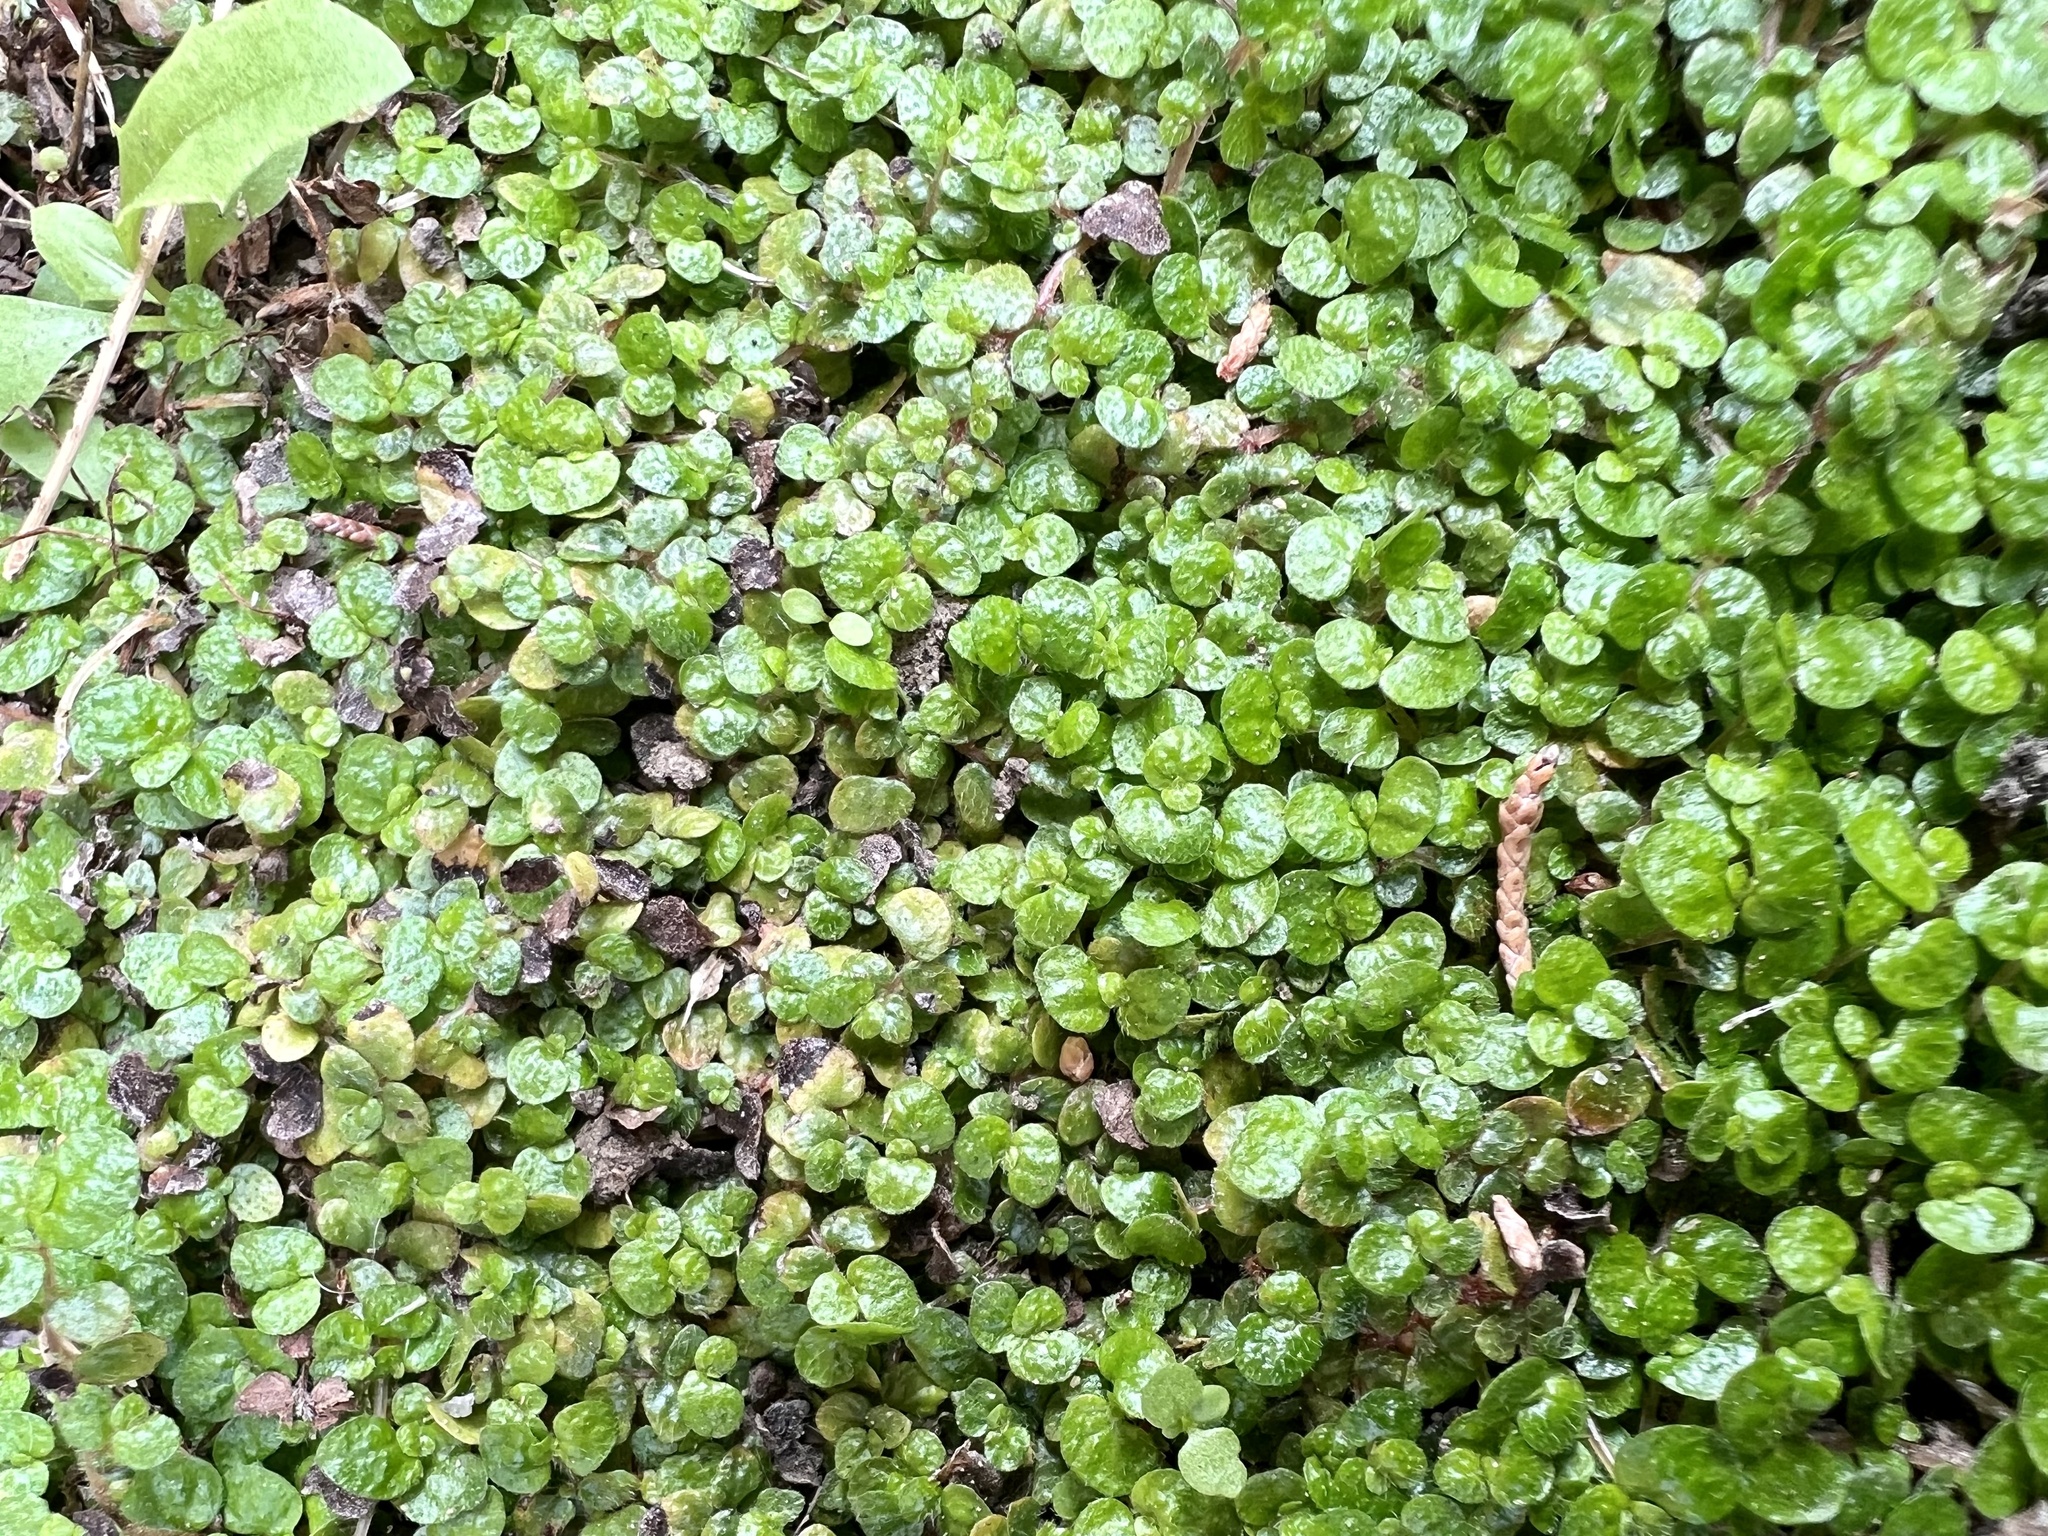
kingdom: Plantae
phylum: Tracheophyta
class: Magnoliopsida
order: Rosales
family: Urticaceae
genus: Soleirolia
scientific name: Soleirolia soleirolii
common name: Mind-your-own-business
